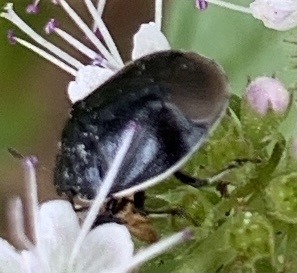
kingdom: Animalia
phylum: Arthropoda
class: Insecta
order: Hemiptera
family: Cydnidae
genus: Sehirus
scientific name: Sehirus cinctus
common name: White-margined burrower bug
